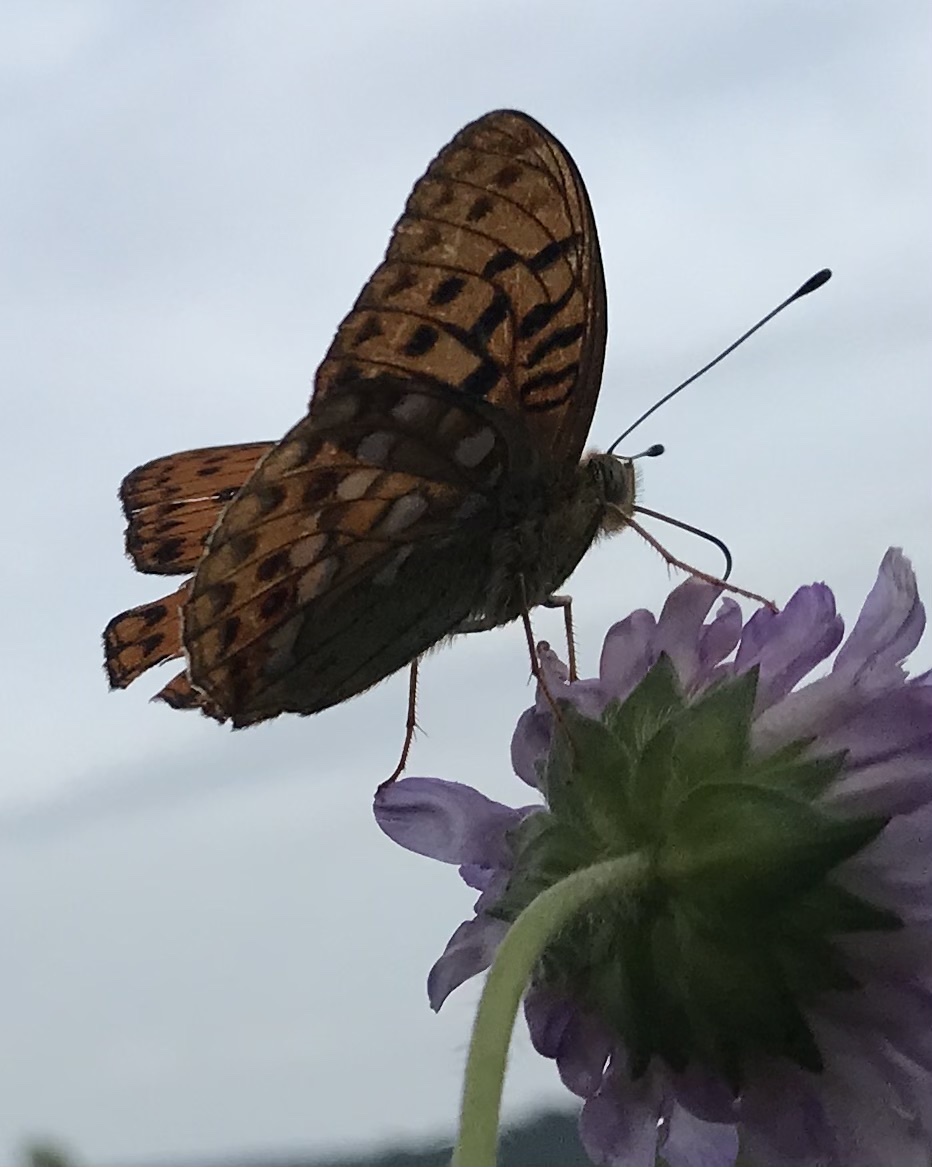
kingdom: Animalia
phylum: Arthropoda
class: Insecta
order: Lepidoptera
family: Nymphalidae
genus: Fabriciana
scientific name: Fabriciana adippe
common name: High brown fritillary
